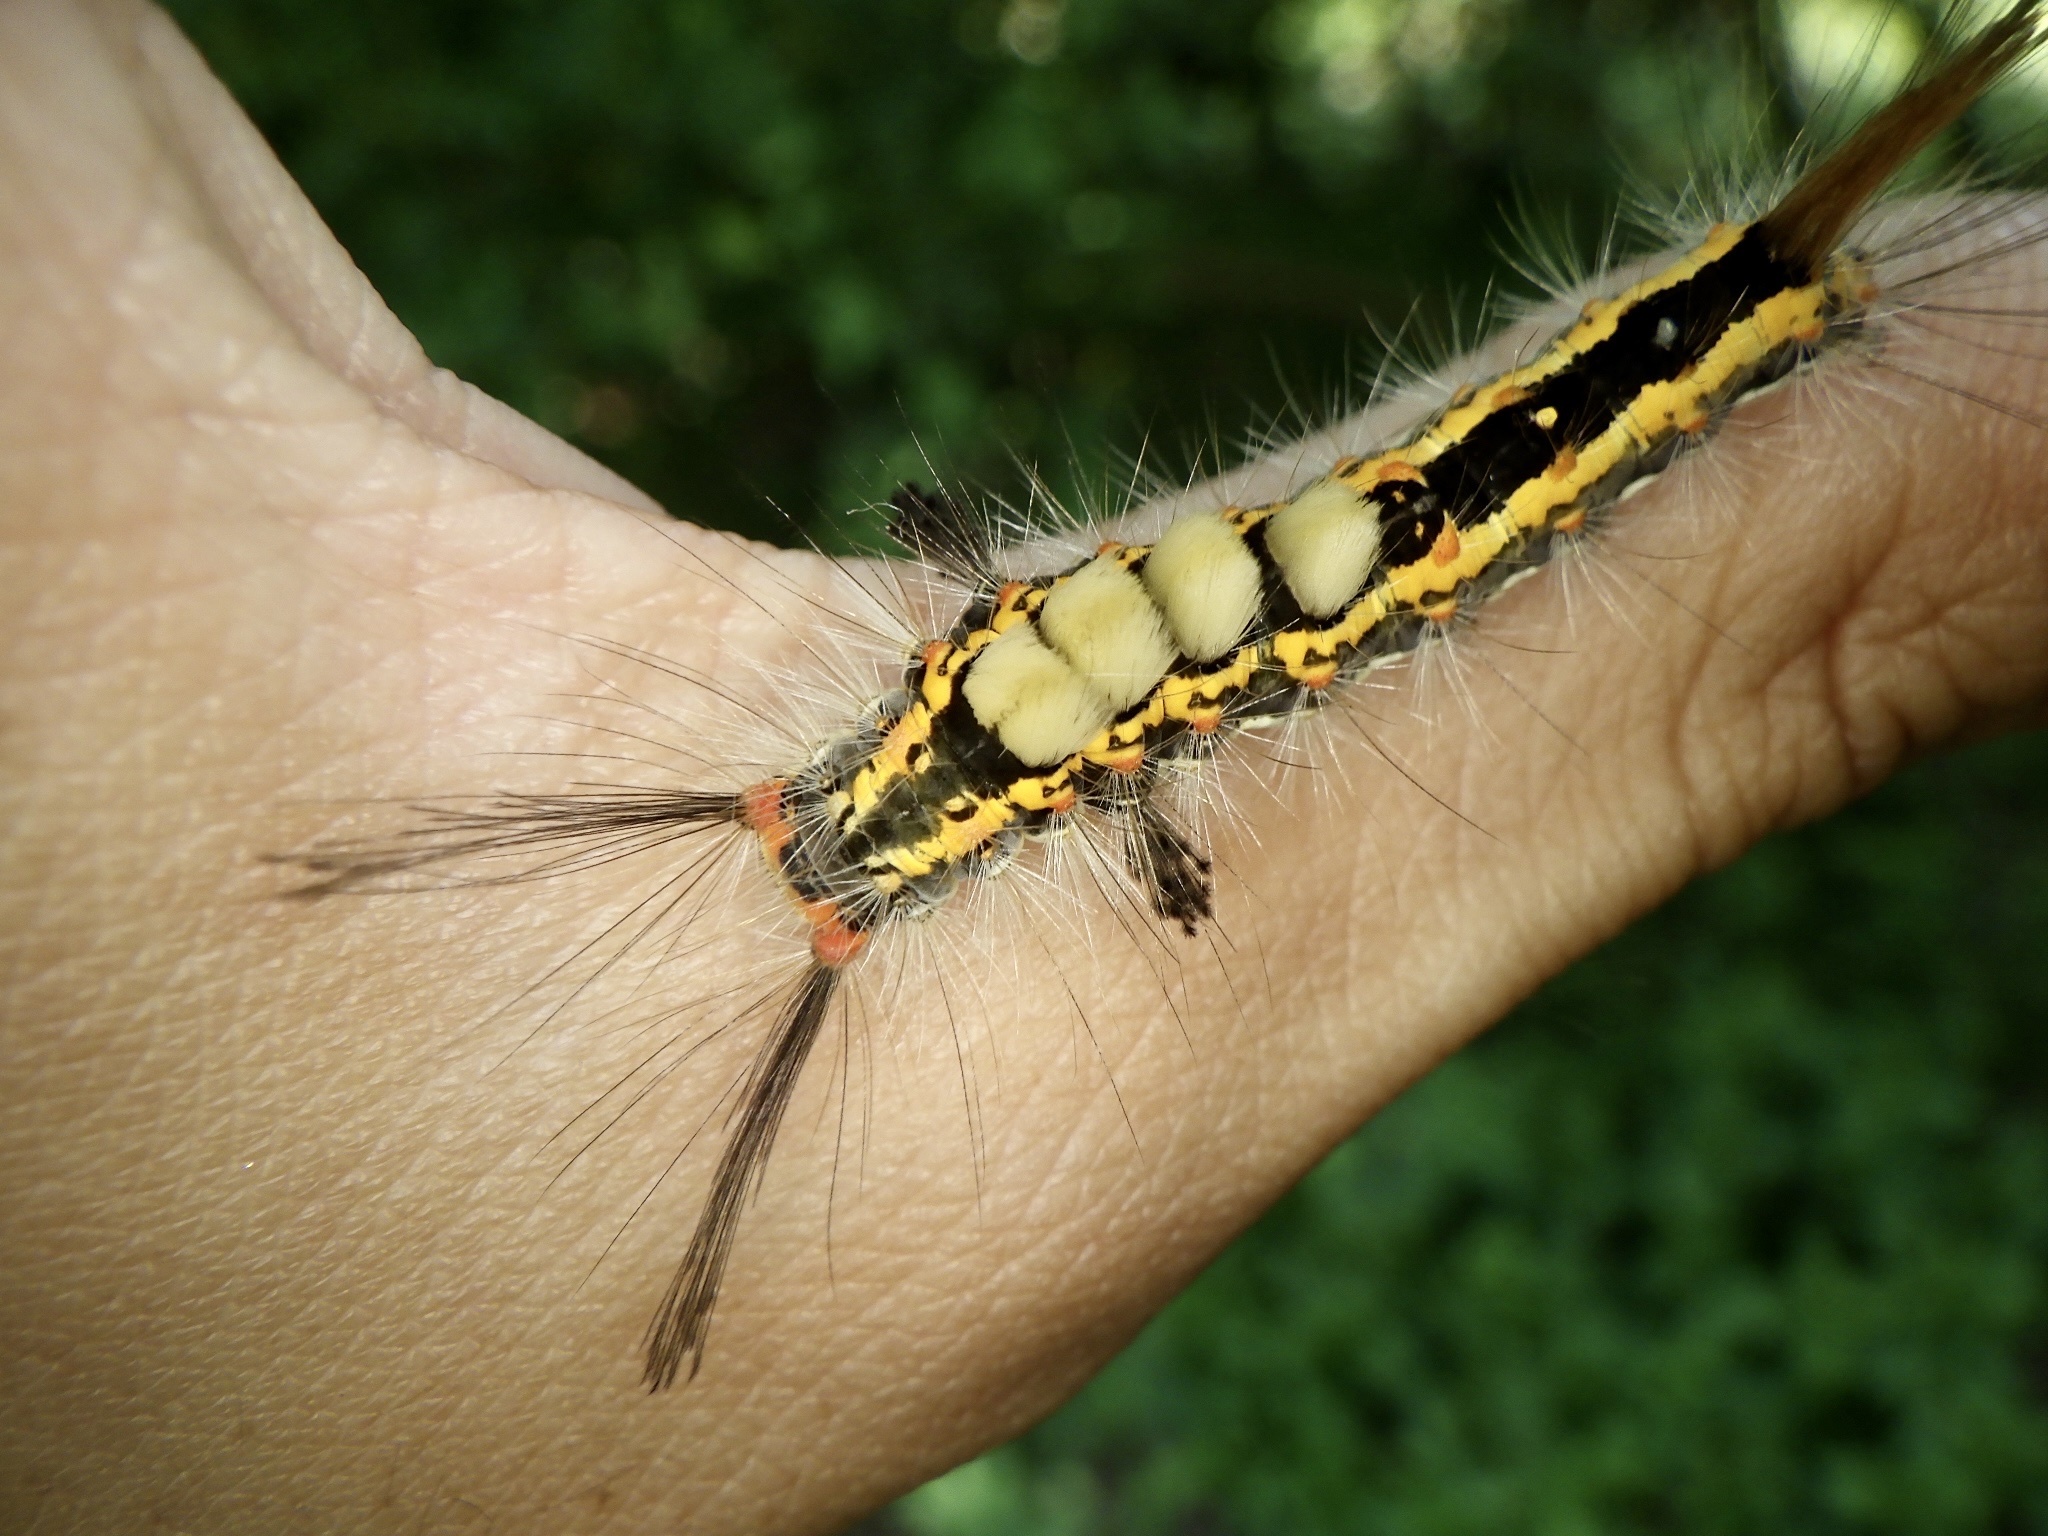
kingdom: Animalia
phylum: Arthropoda
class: Insecta
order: Lepidoptera
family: Erebidae
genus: Orgyia
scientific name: Orgyia thyellina
